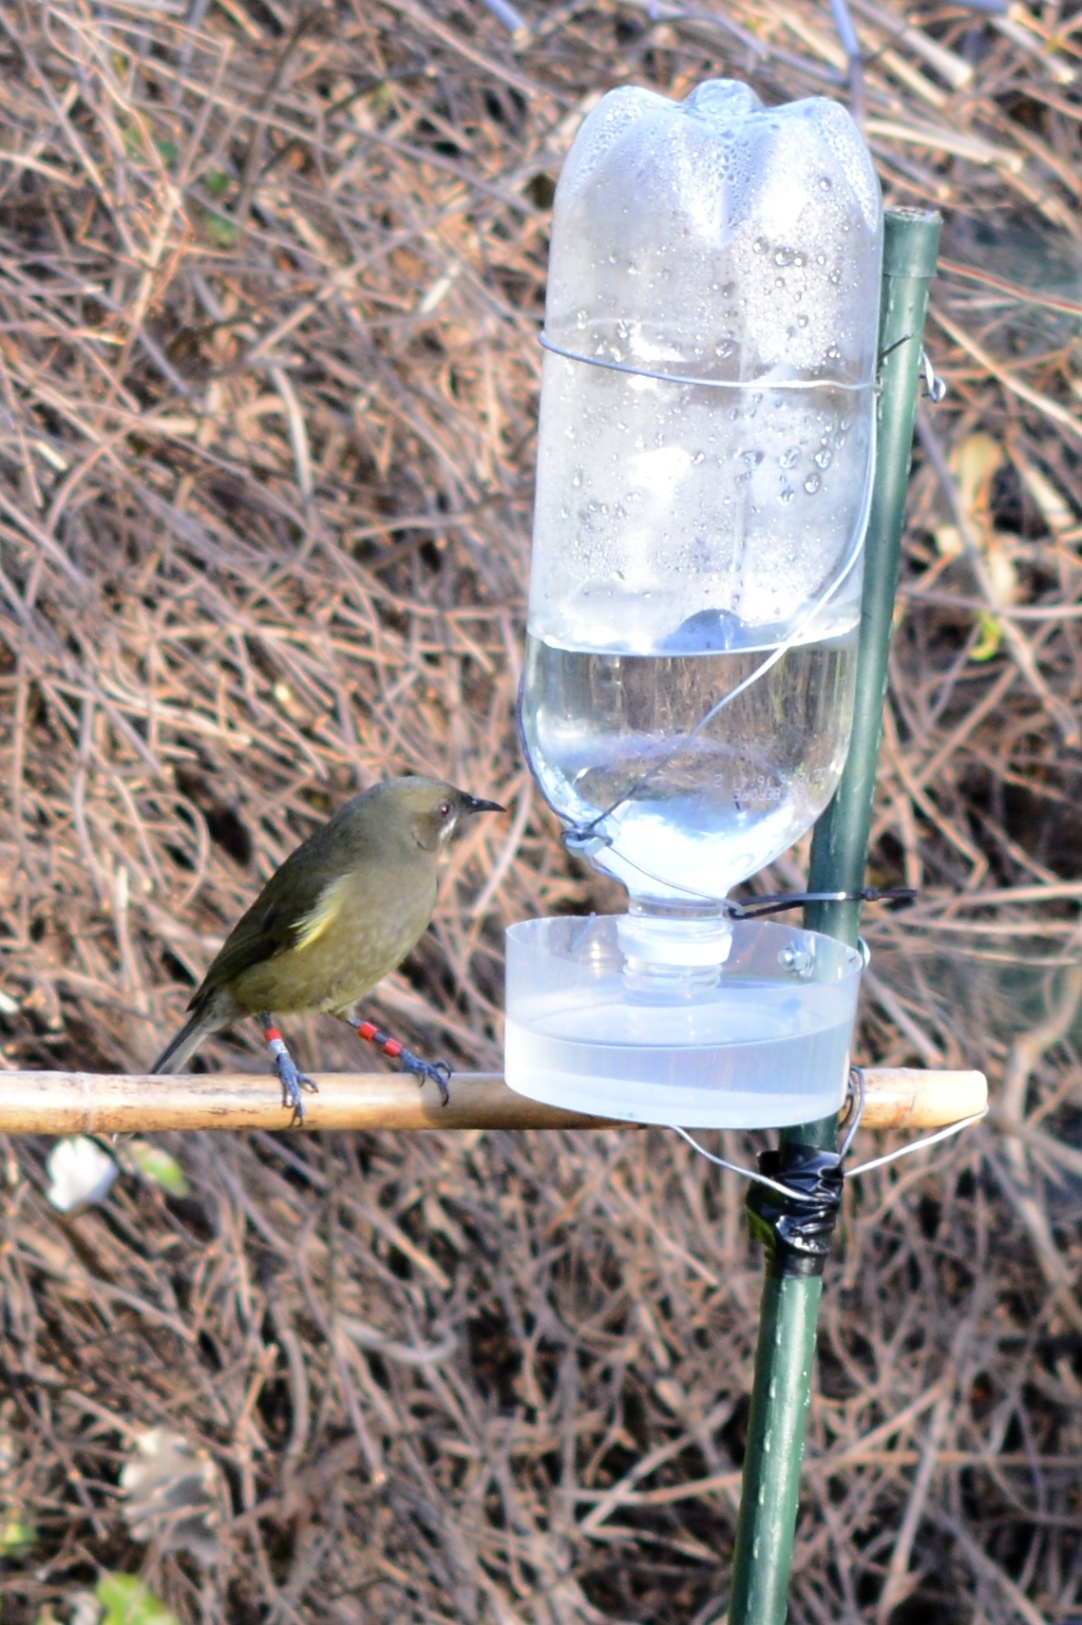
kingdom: Animalia
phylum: Chordata
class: Aves
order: Passeriformes
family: Meliphagidae
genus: Anthornis
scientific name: Anthornis melanura
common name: New zealand bellbird
